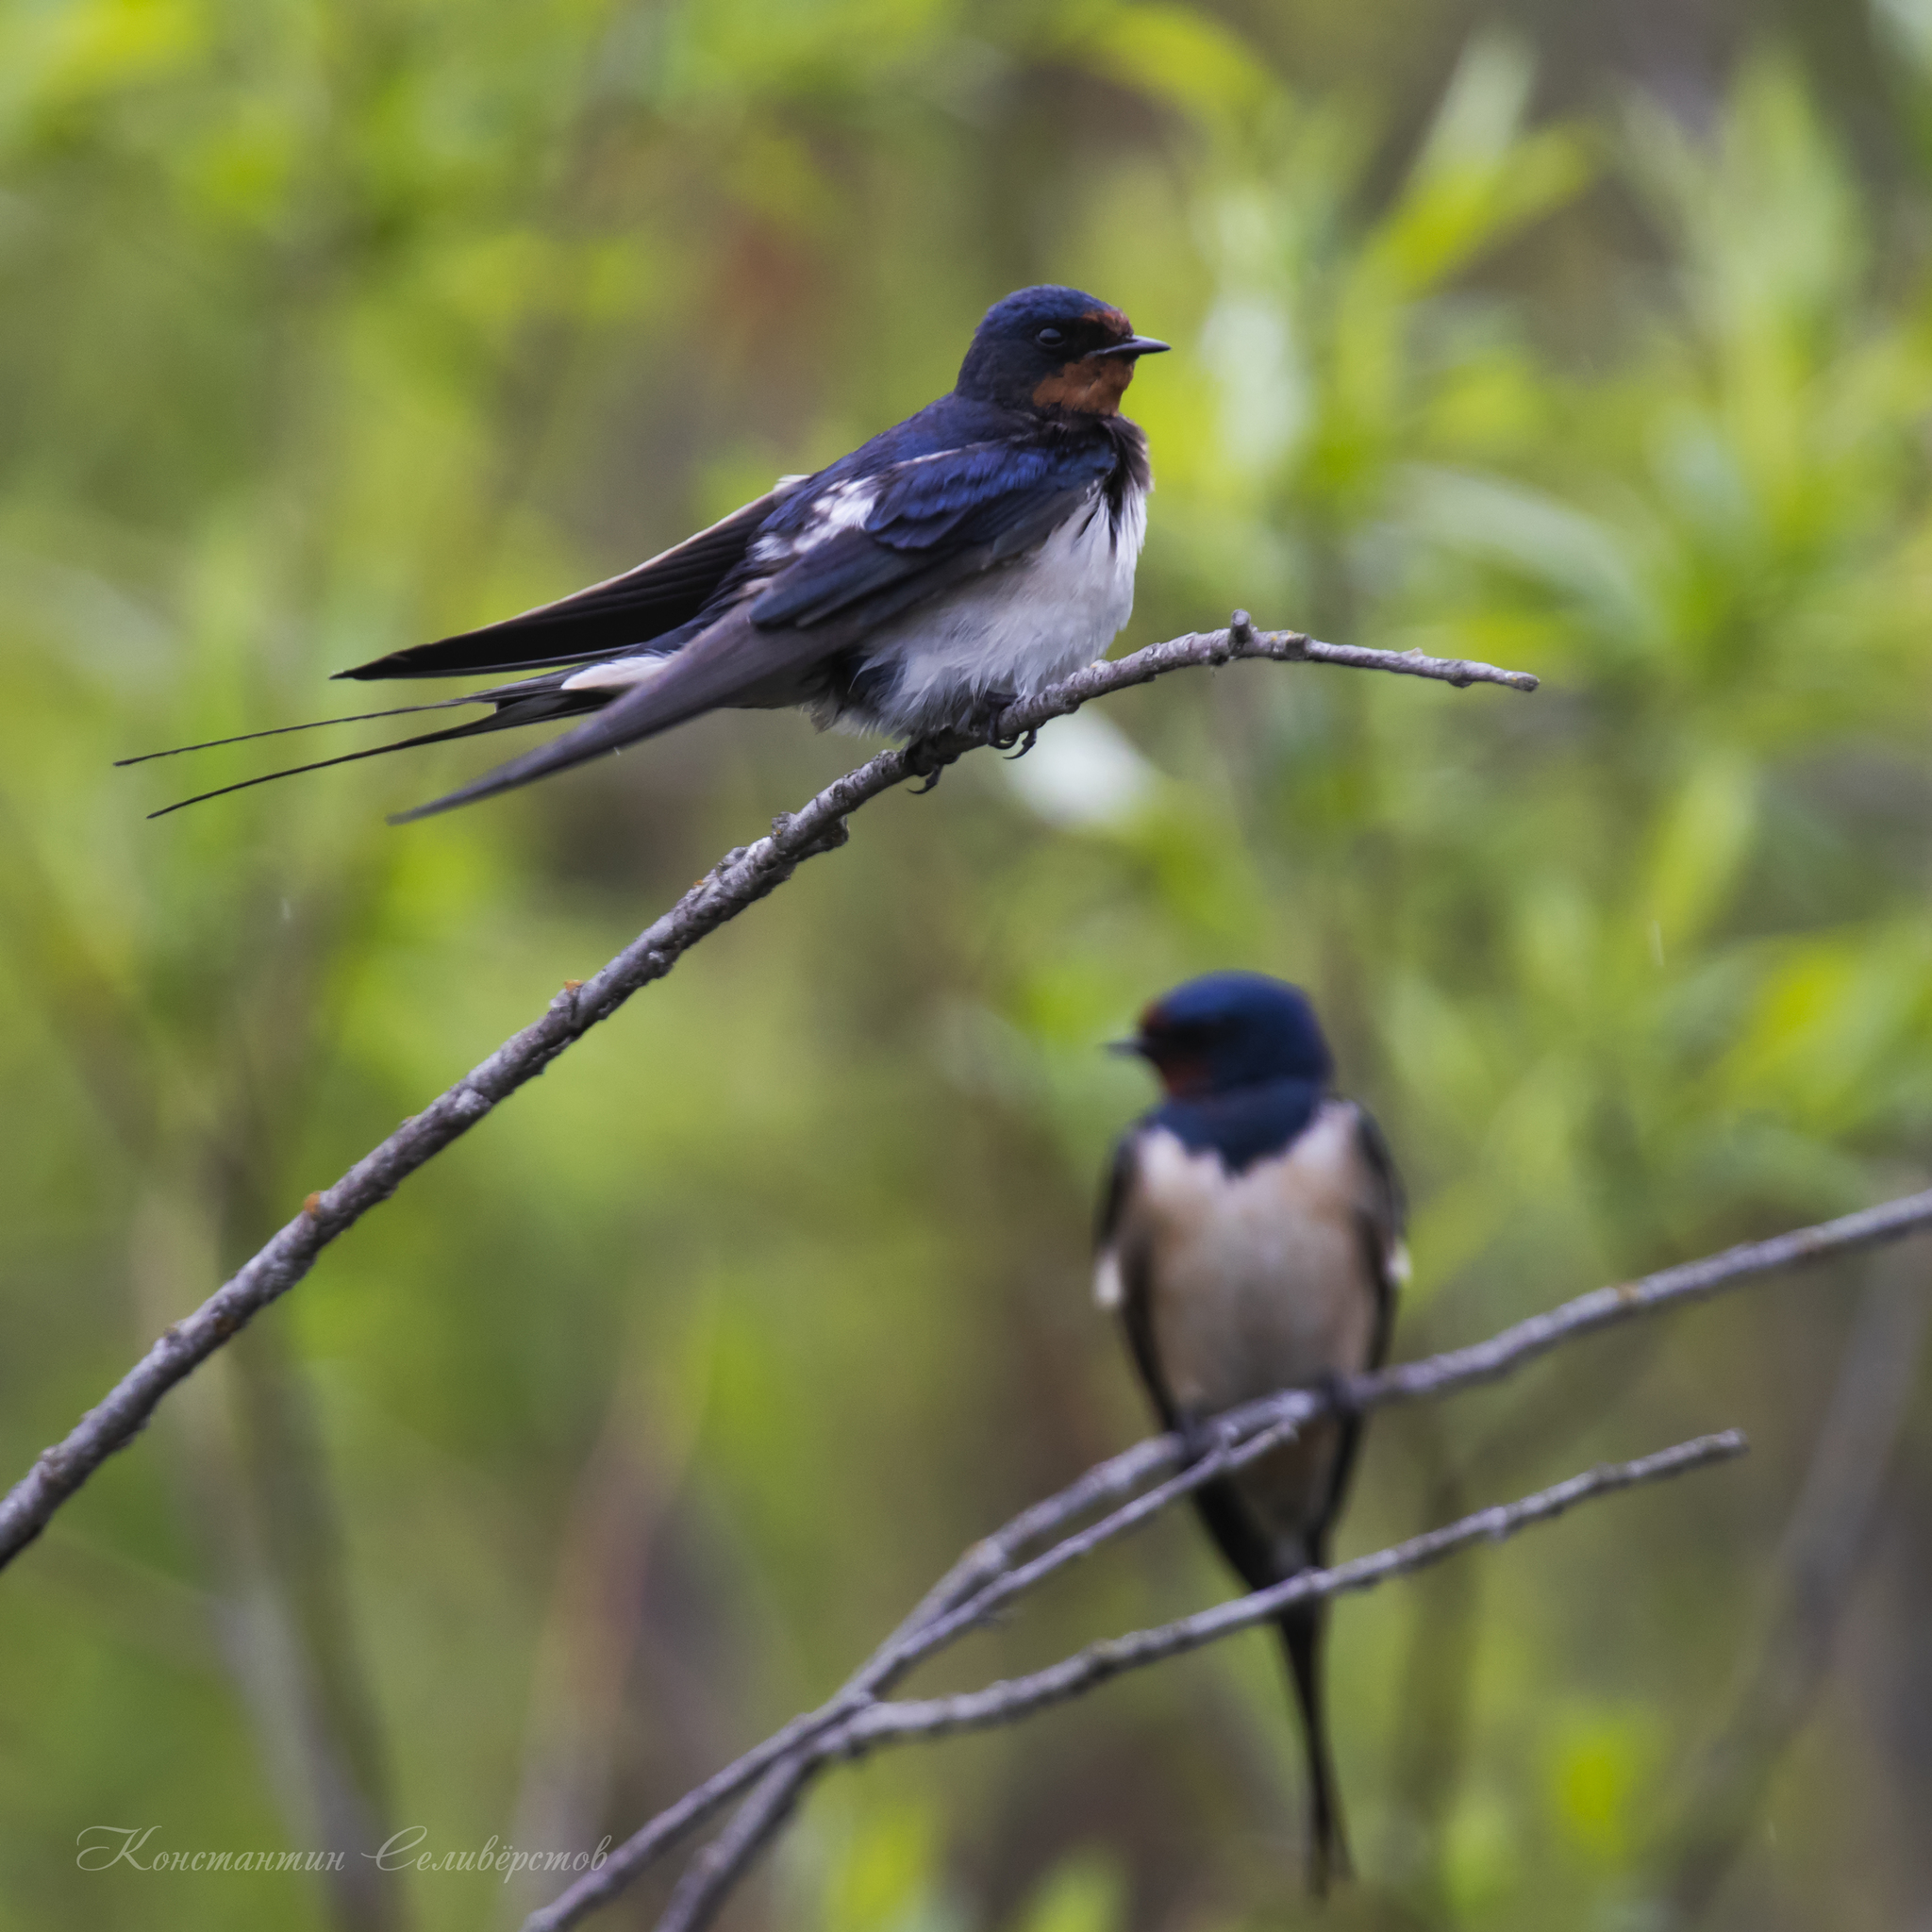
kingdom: Animalia
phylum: Chordata
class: Aves
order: Passeriformes
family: Hirundinidae
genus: Hirundo
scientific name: Hirundo rustica
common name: Barn swallow
